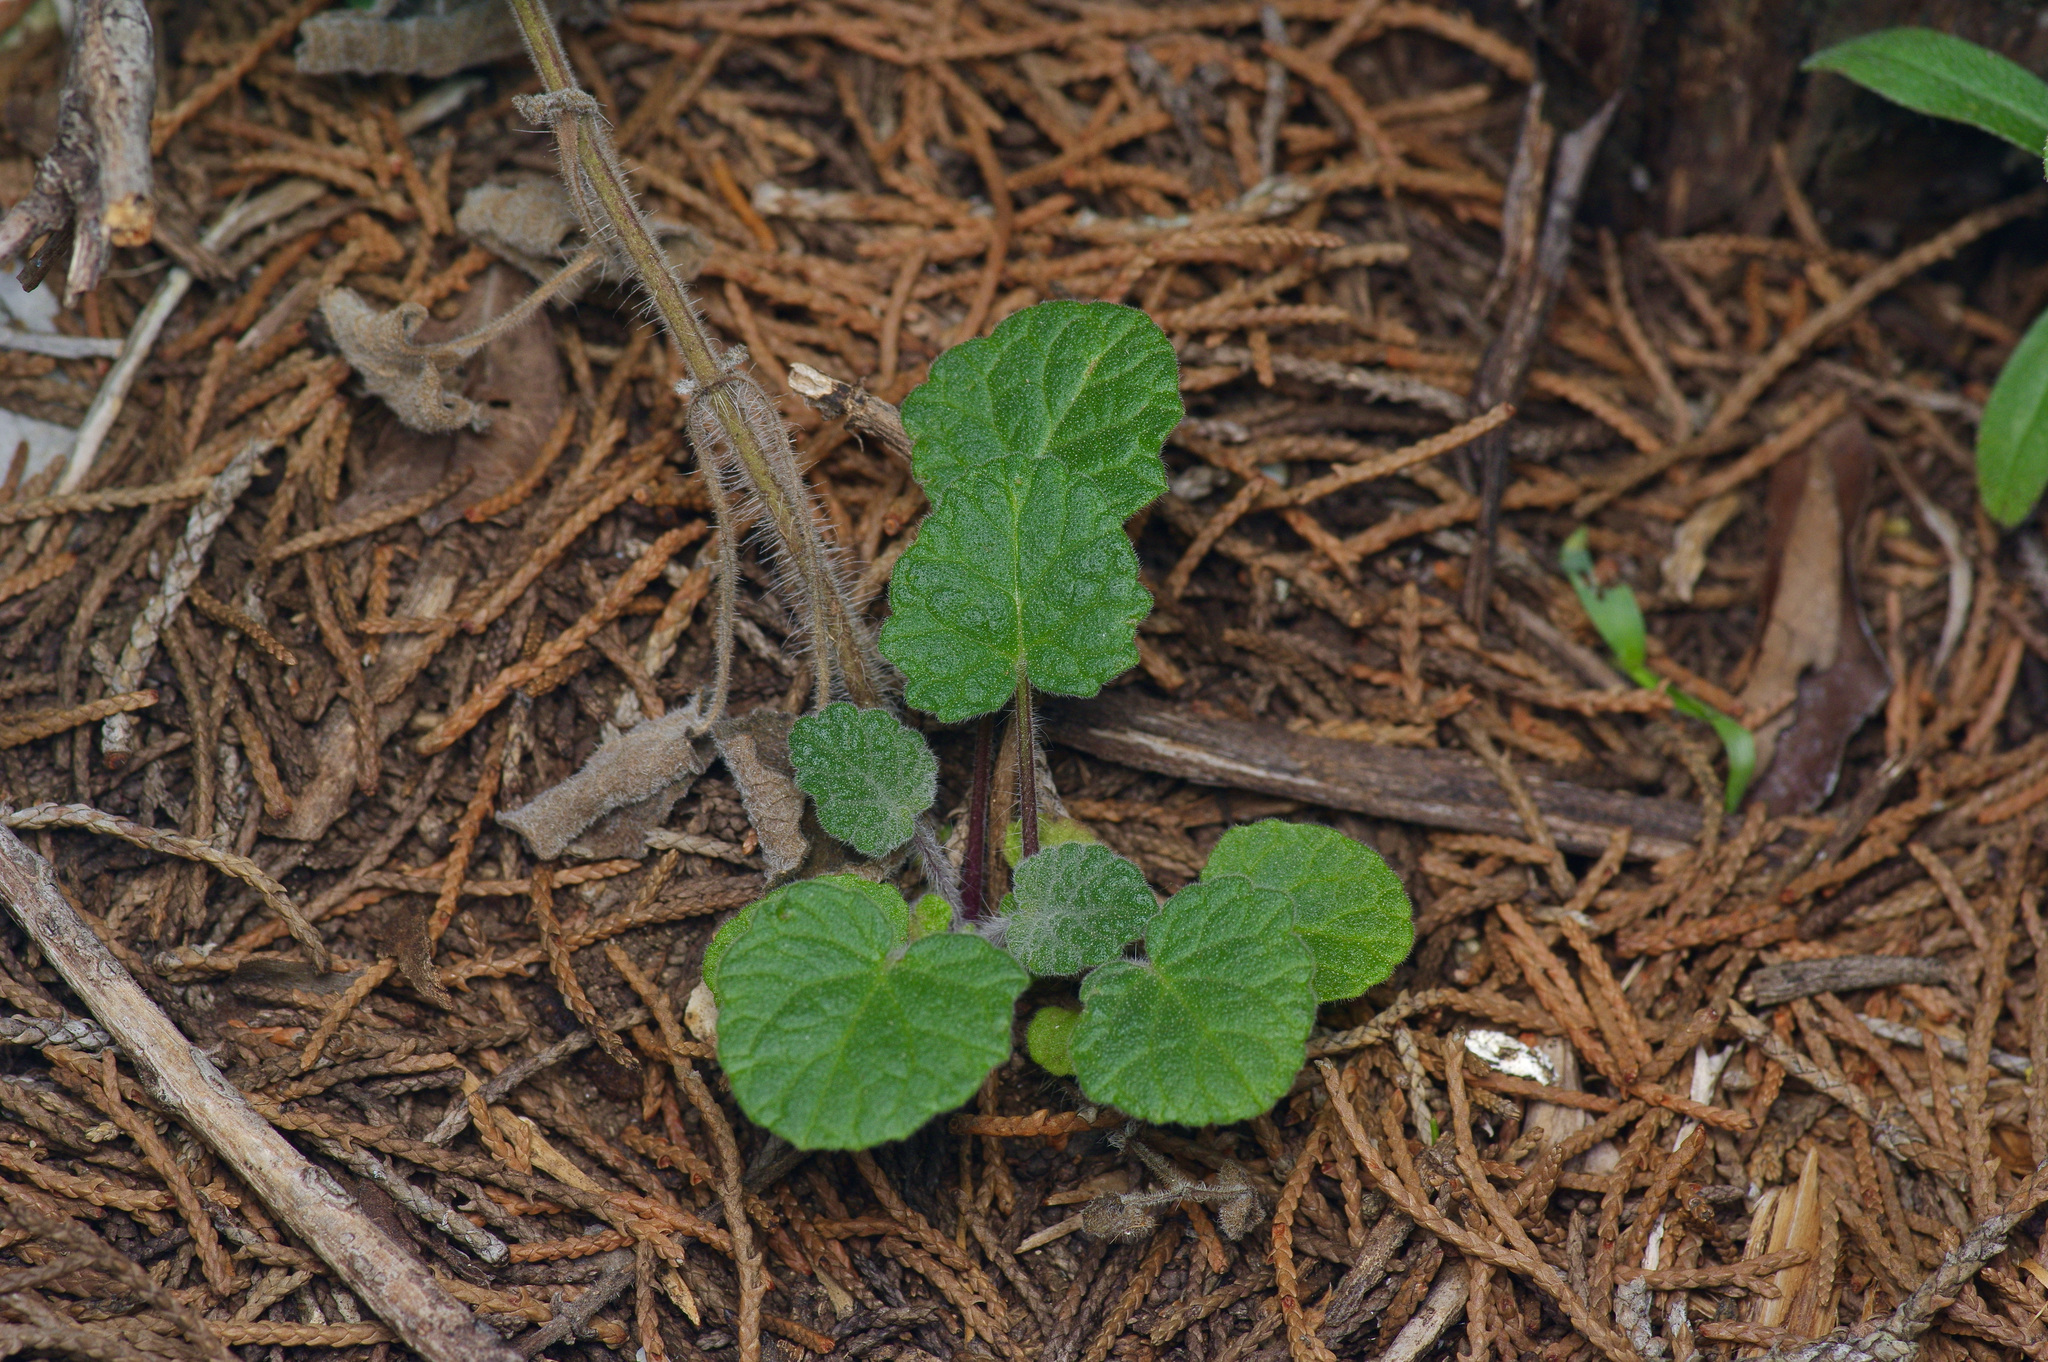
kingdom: Plantae
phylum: Tracheophyta
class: Magnoliopsida
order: Lamiales
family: Lamiaceae
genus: Salvia
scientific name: Salvia roemeriana
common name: Cedar sage
